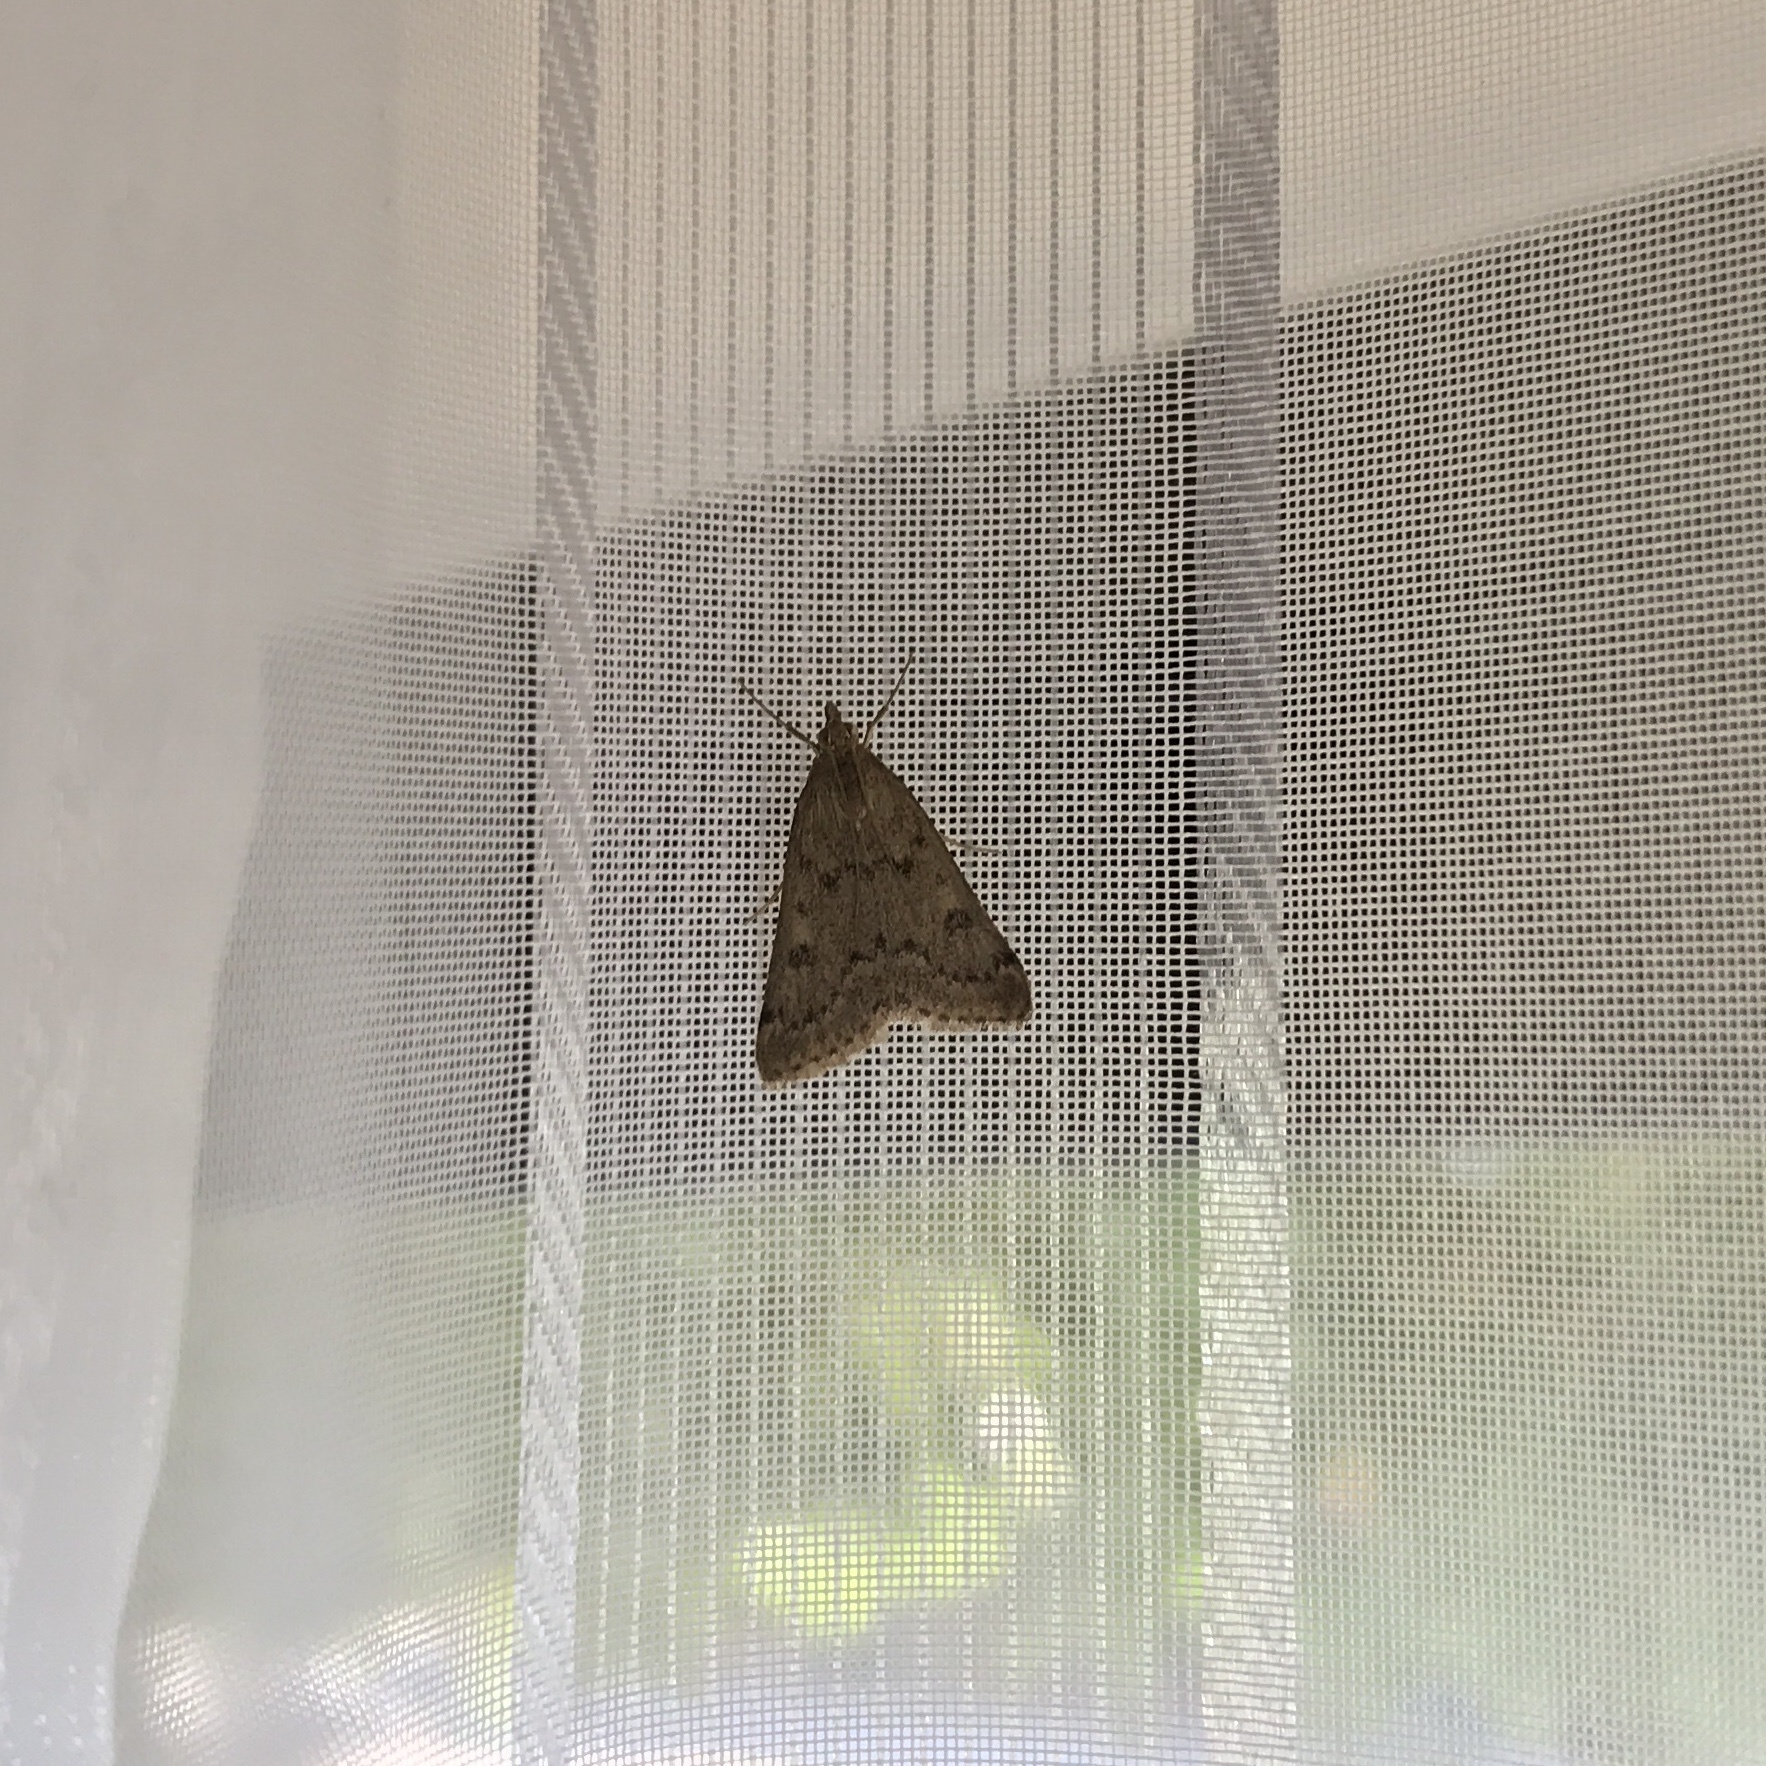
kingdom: Animalia
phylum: Arthropoda
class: Insecta
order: Lepidoptera
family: Crambidae
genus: Achyra
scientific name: Achyra rantalis
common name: Garden webworm
